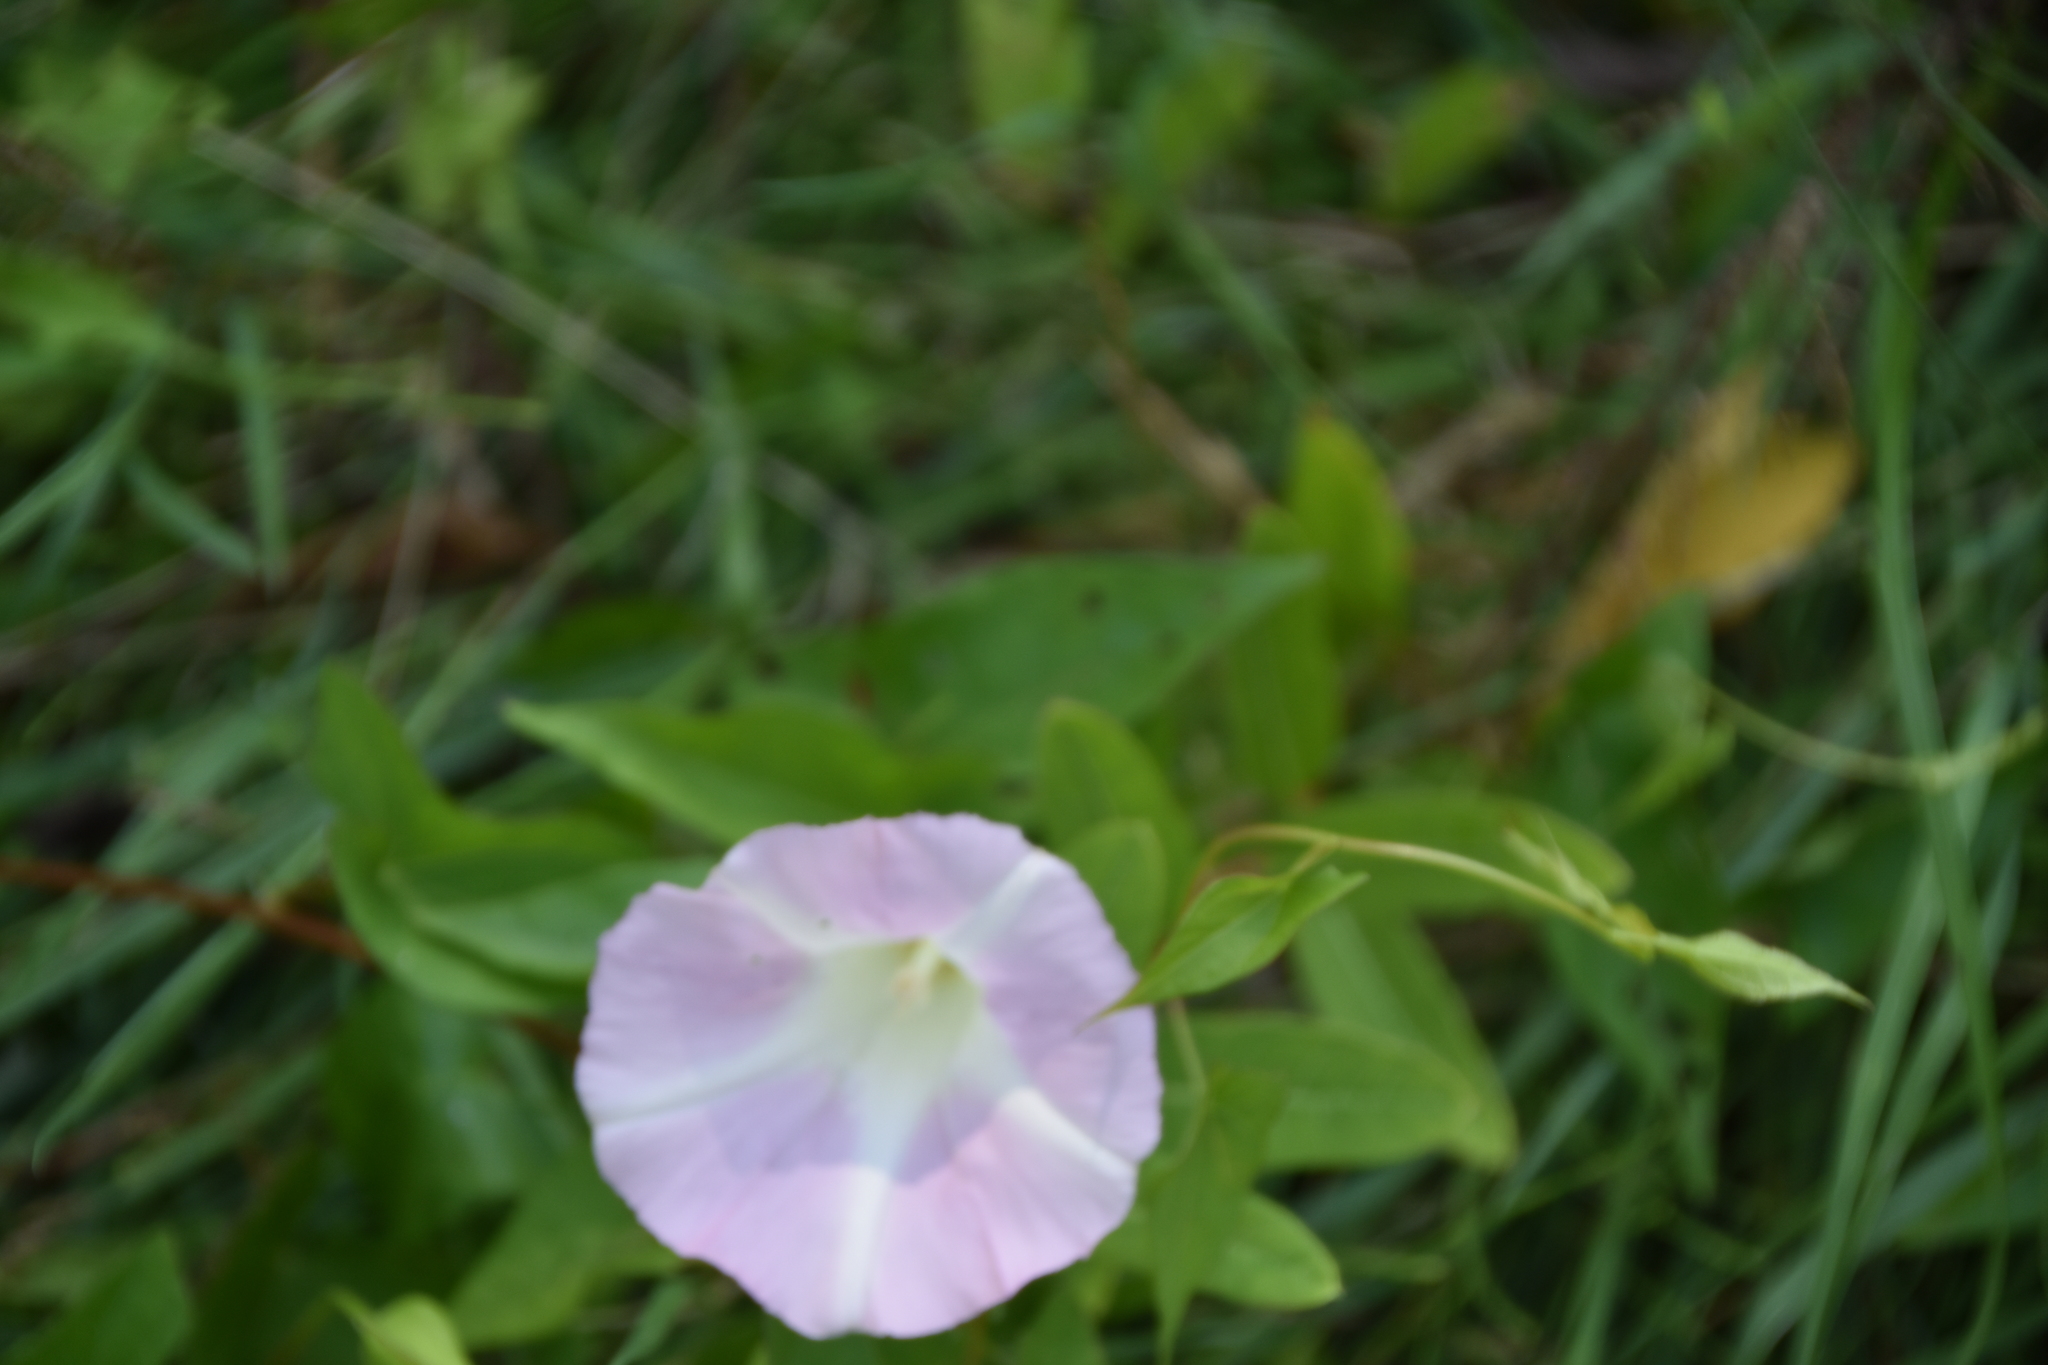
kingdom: Plantae
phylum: Tracheophyta
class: Magnoliopsida
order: Solanales
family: Convolvulaceae
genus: Calystegia
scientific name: Calystegia sepium
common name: Hedge bindweed
